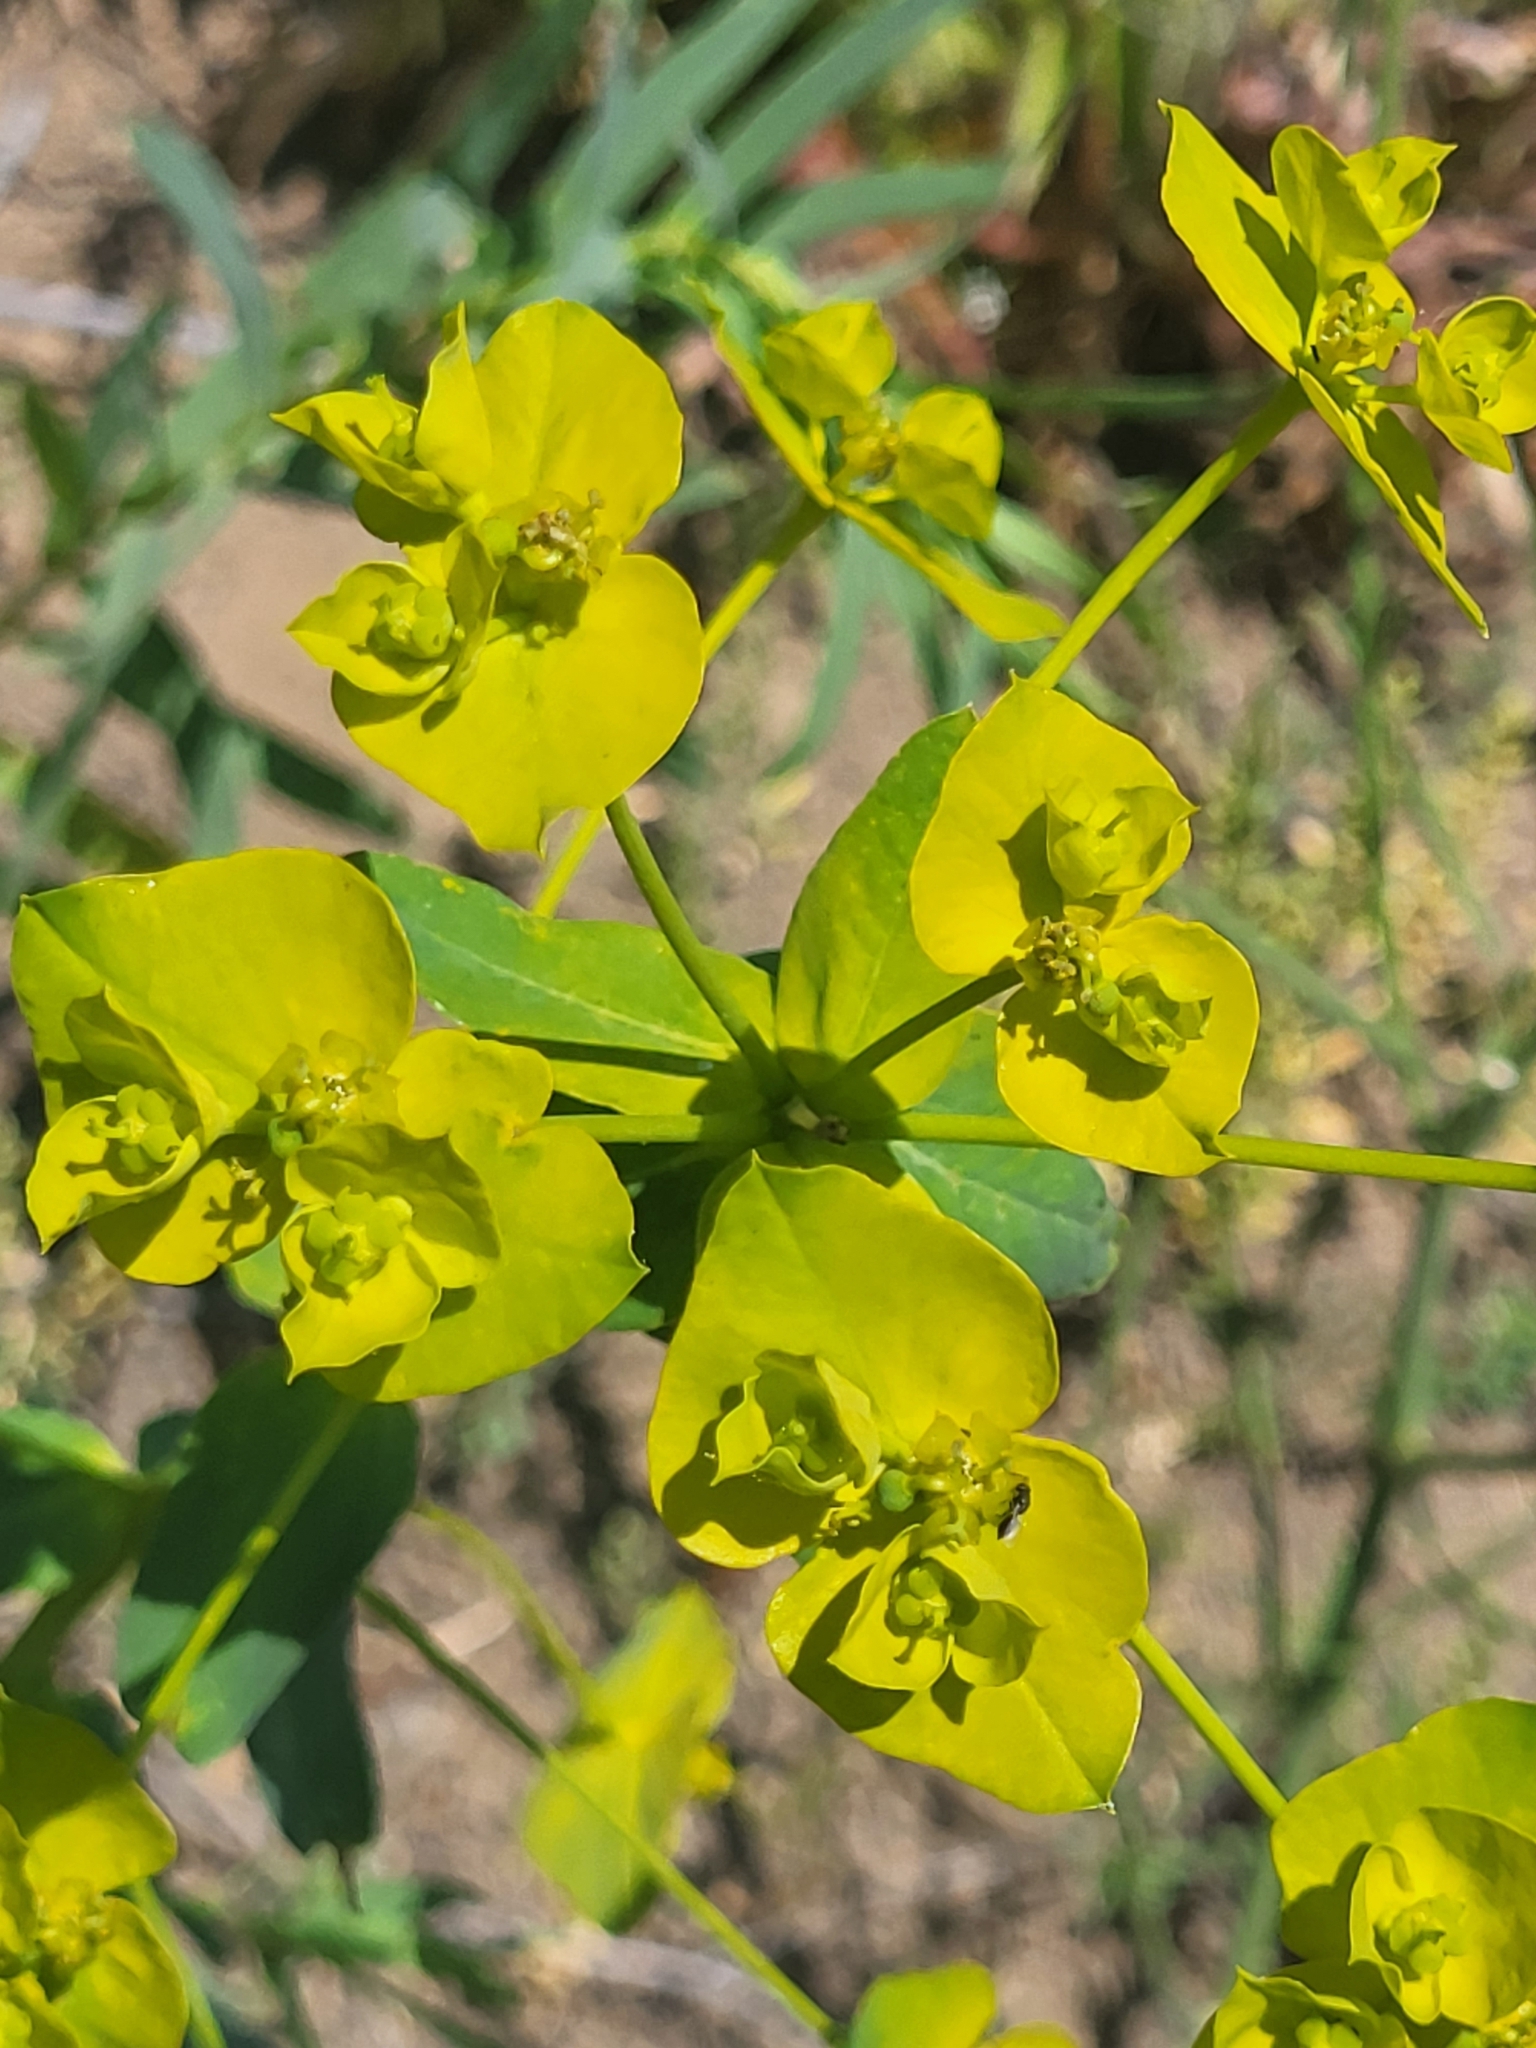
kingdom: Plantae
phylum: Tracheophyta
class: Magnoliopsida
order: Malpighiales
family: Euphorbiaceae
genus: Euphorbia
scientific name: Euphorbia iberica
